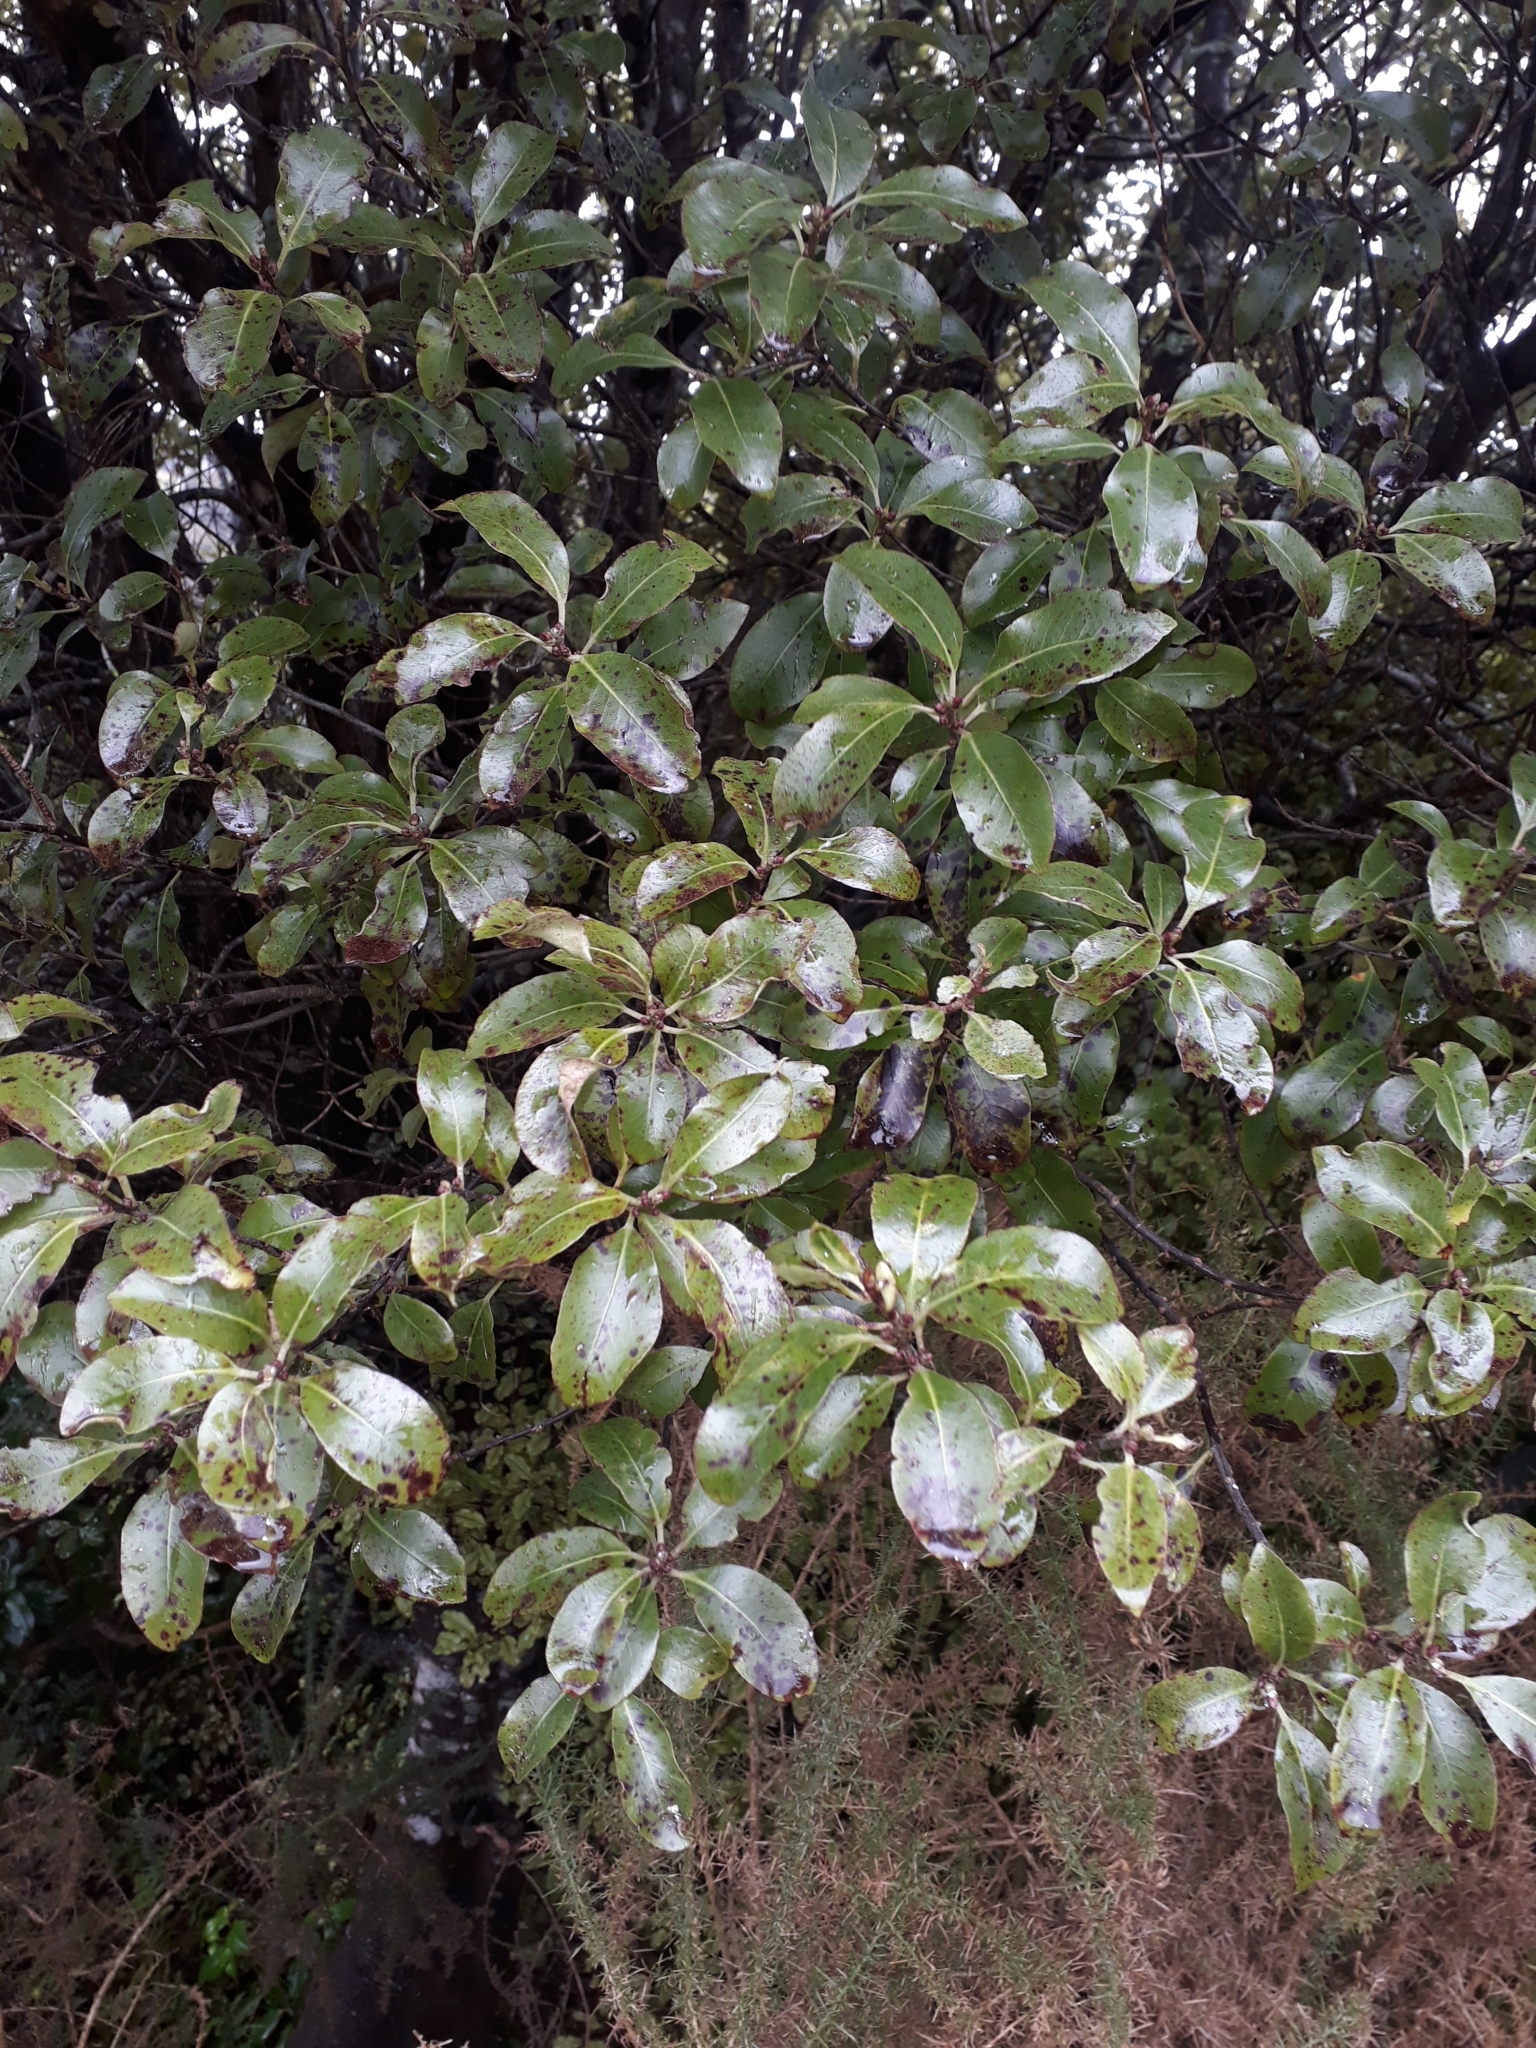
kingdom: Plantae
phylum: Tracheophyta
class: Magnoliopsida
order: Apiales
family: Pittosporaceae
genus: Pittosporum
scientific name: Pittosporum tenuifolium
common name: Kohuhu
